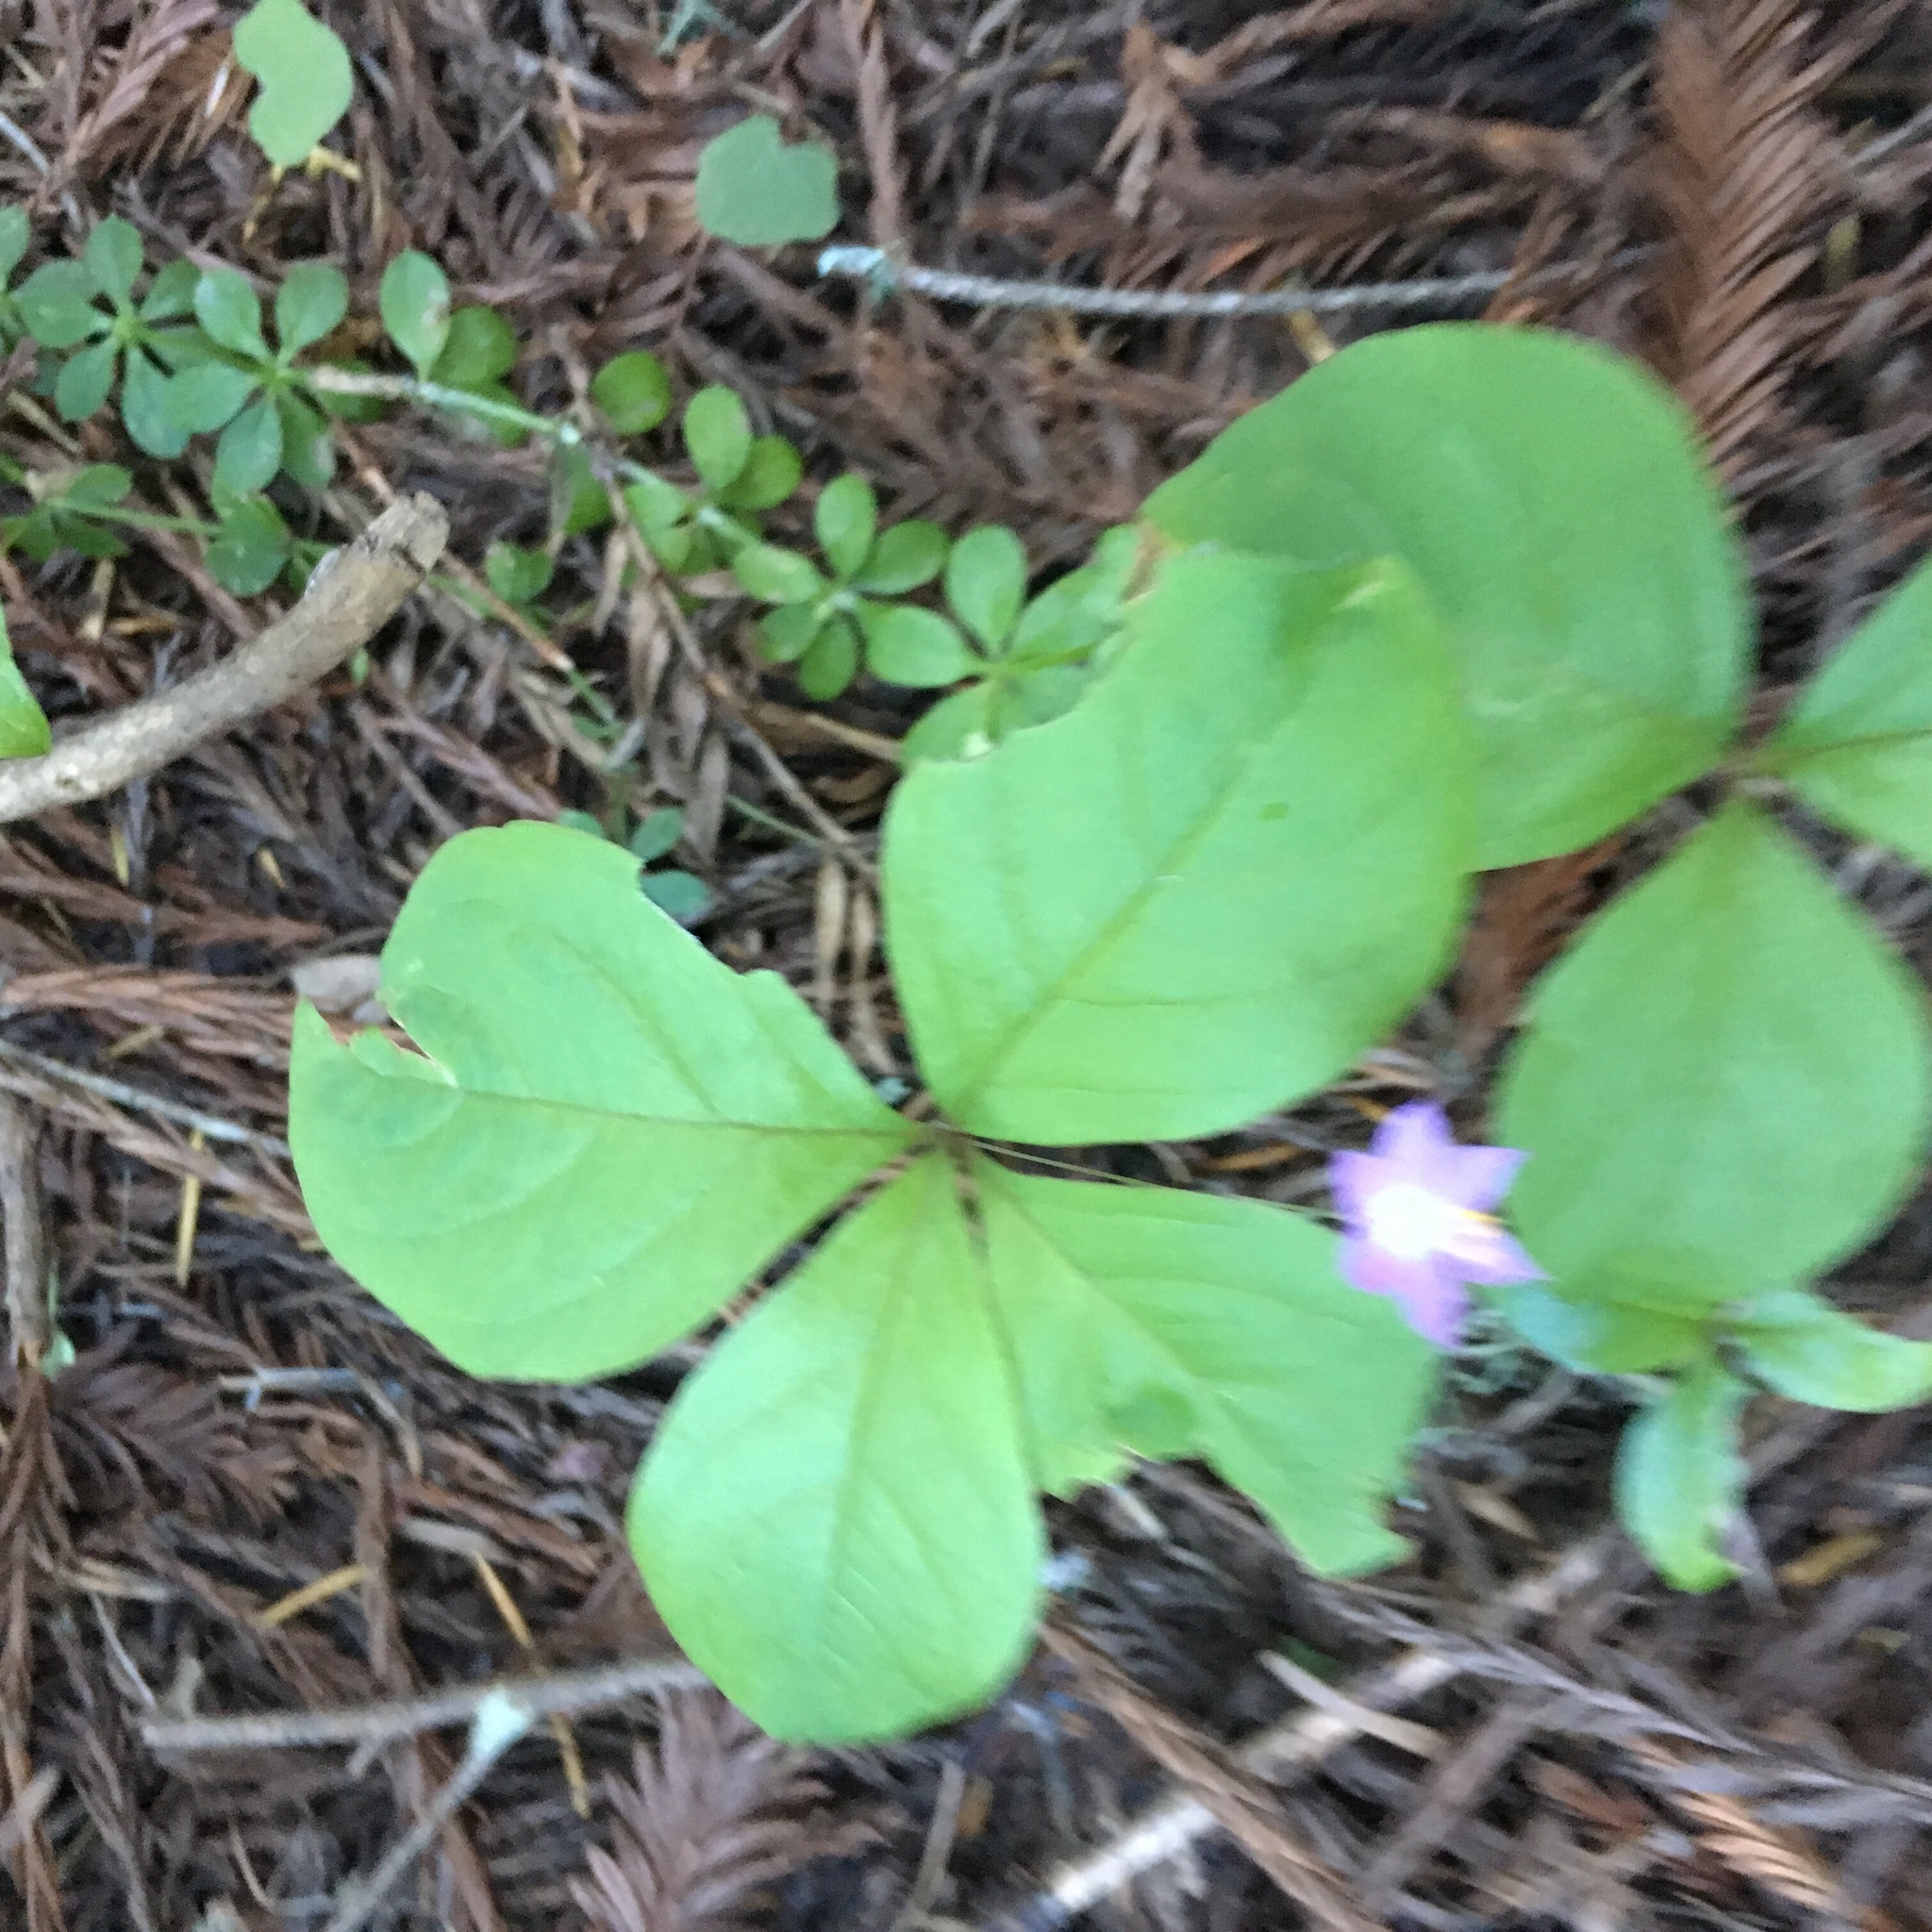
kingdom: Plantae
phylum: Tracheophyta
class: Magnoliopsida
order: Ericales
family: Primulaceae
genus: Lysimachia
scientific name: Lysimachia latifolia
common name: Pacific starflower
